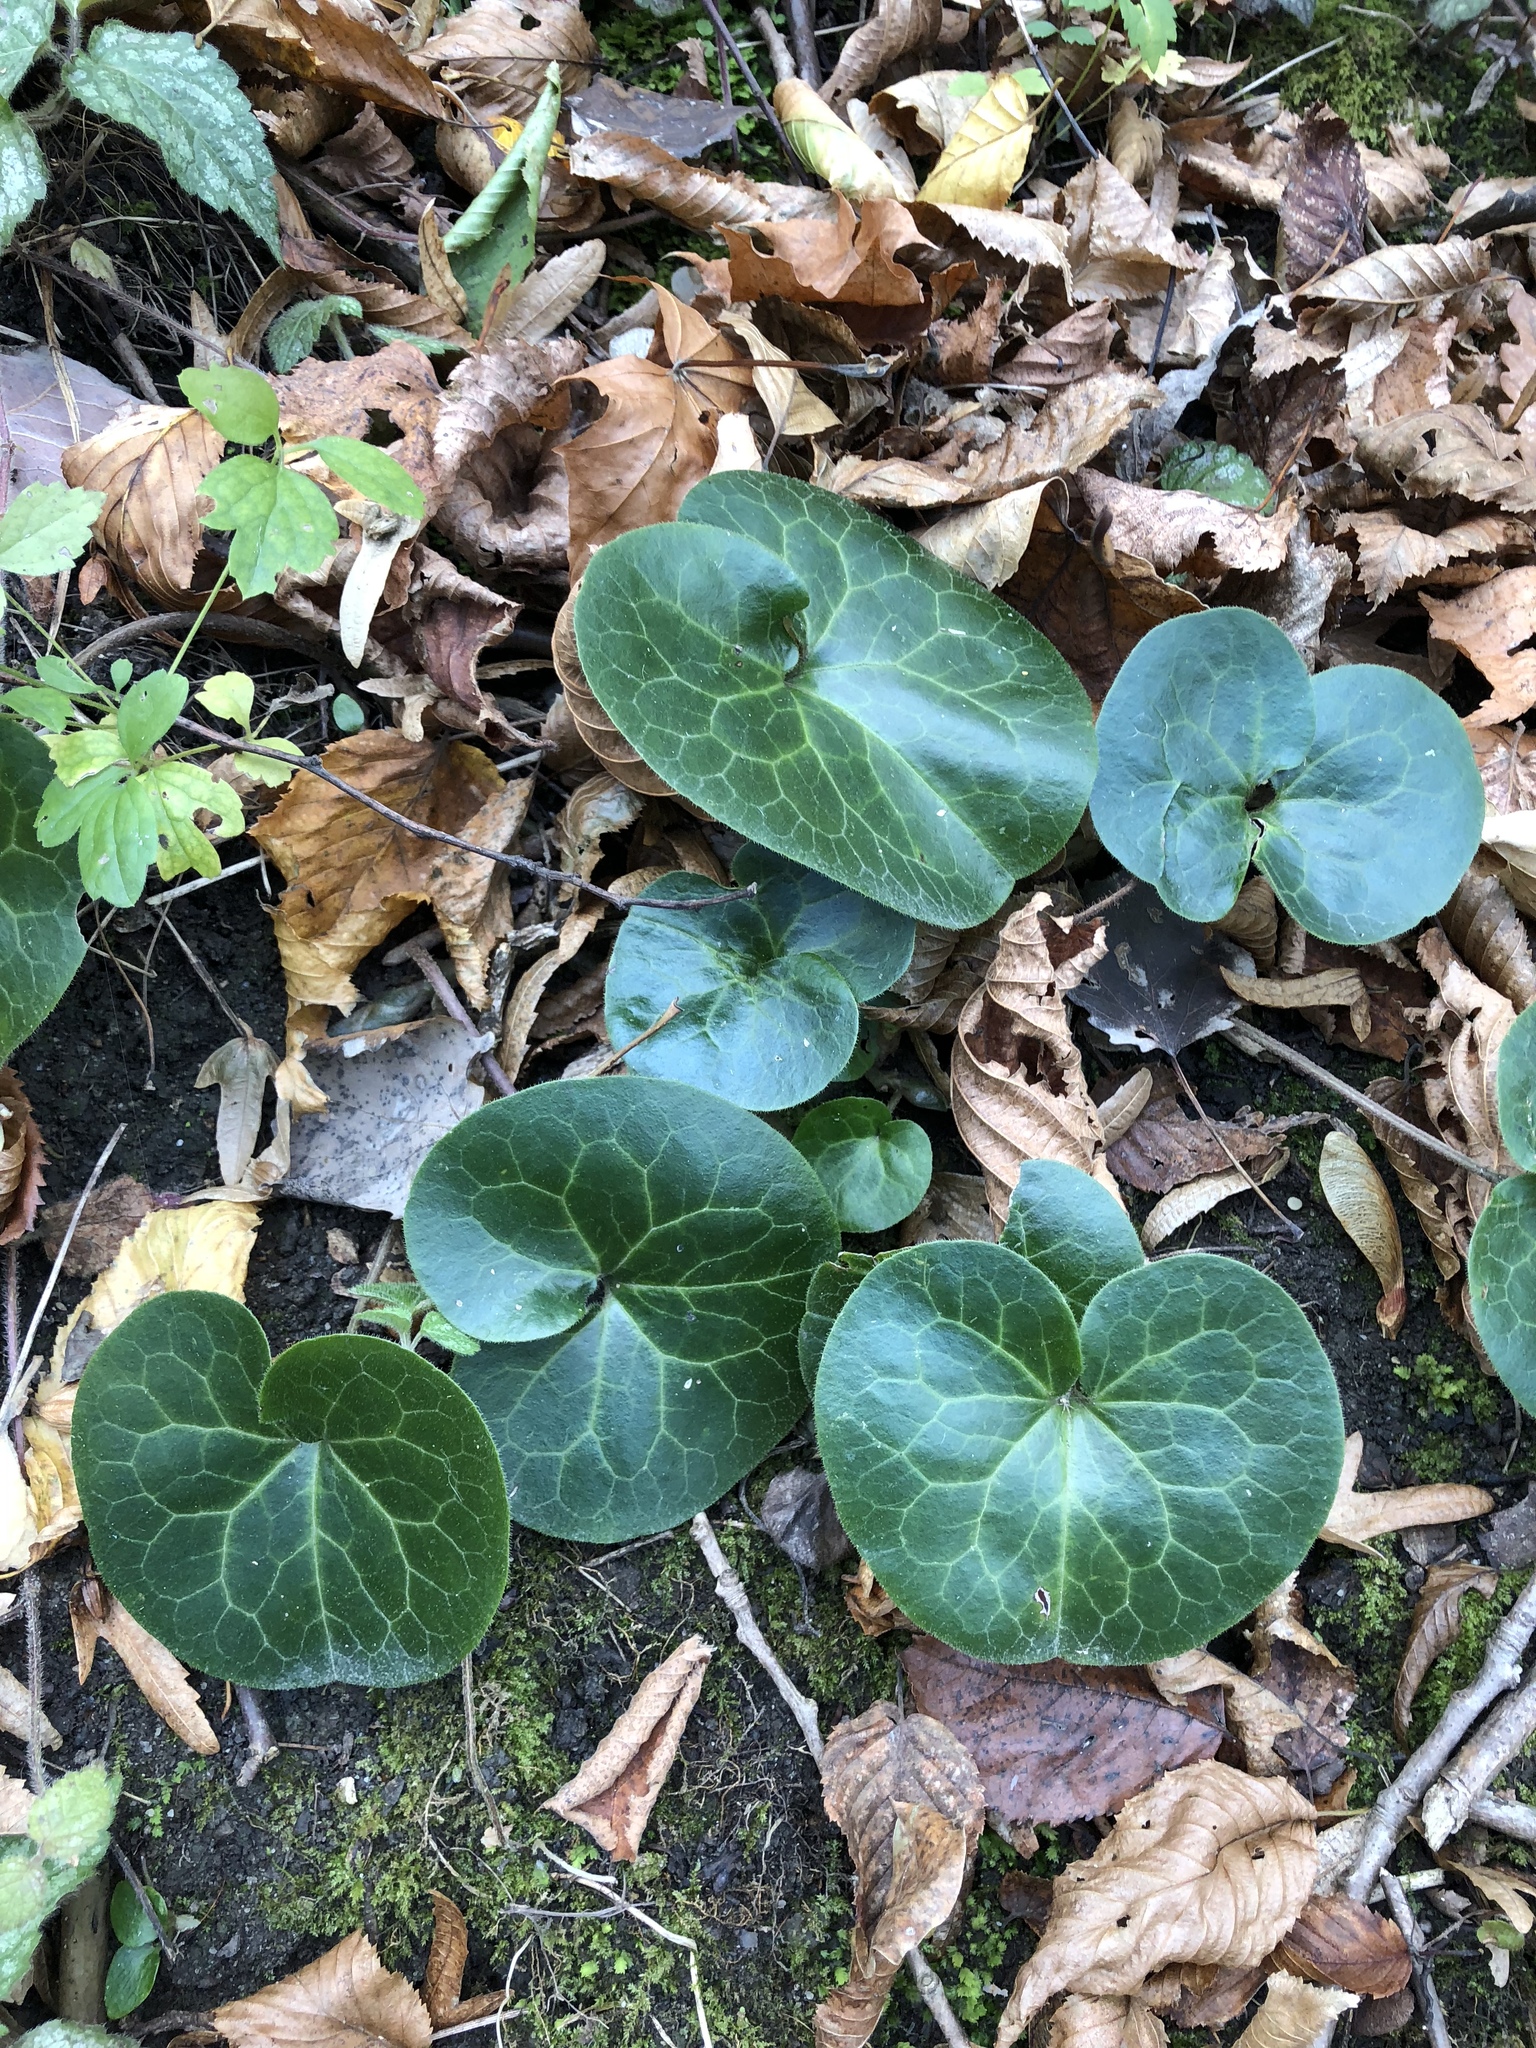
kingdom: Plantae
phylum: Tracheophyta
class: Magnoliopsida
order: Piperales
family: Aristolochiaceae
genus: Asarum
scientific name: Asarum europaeum
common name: Asarabacca
